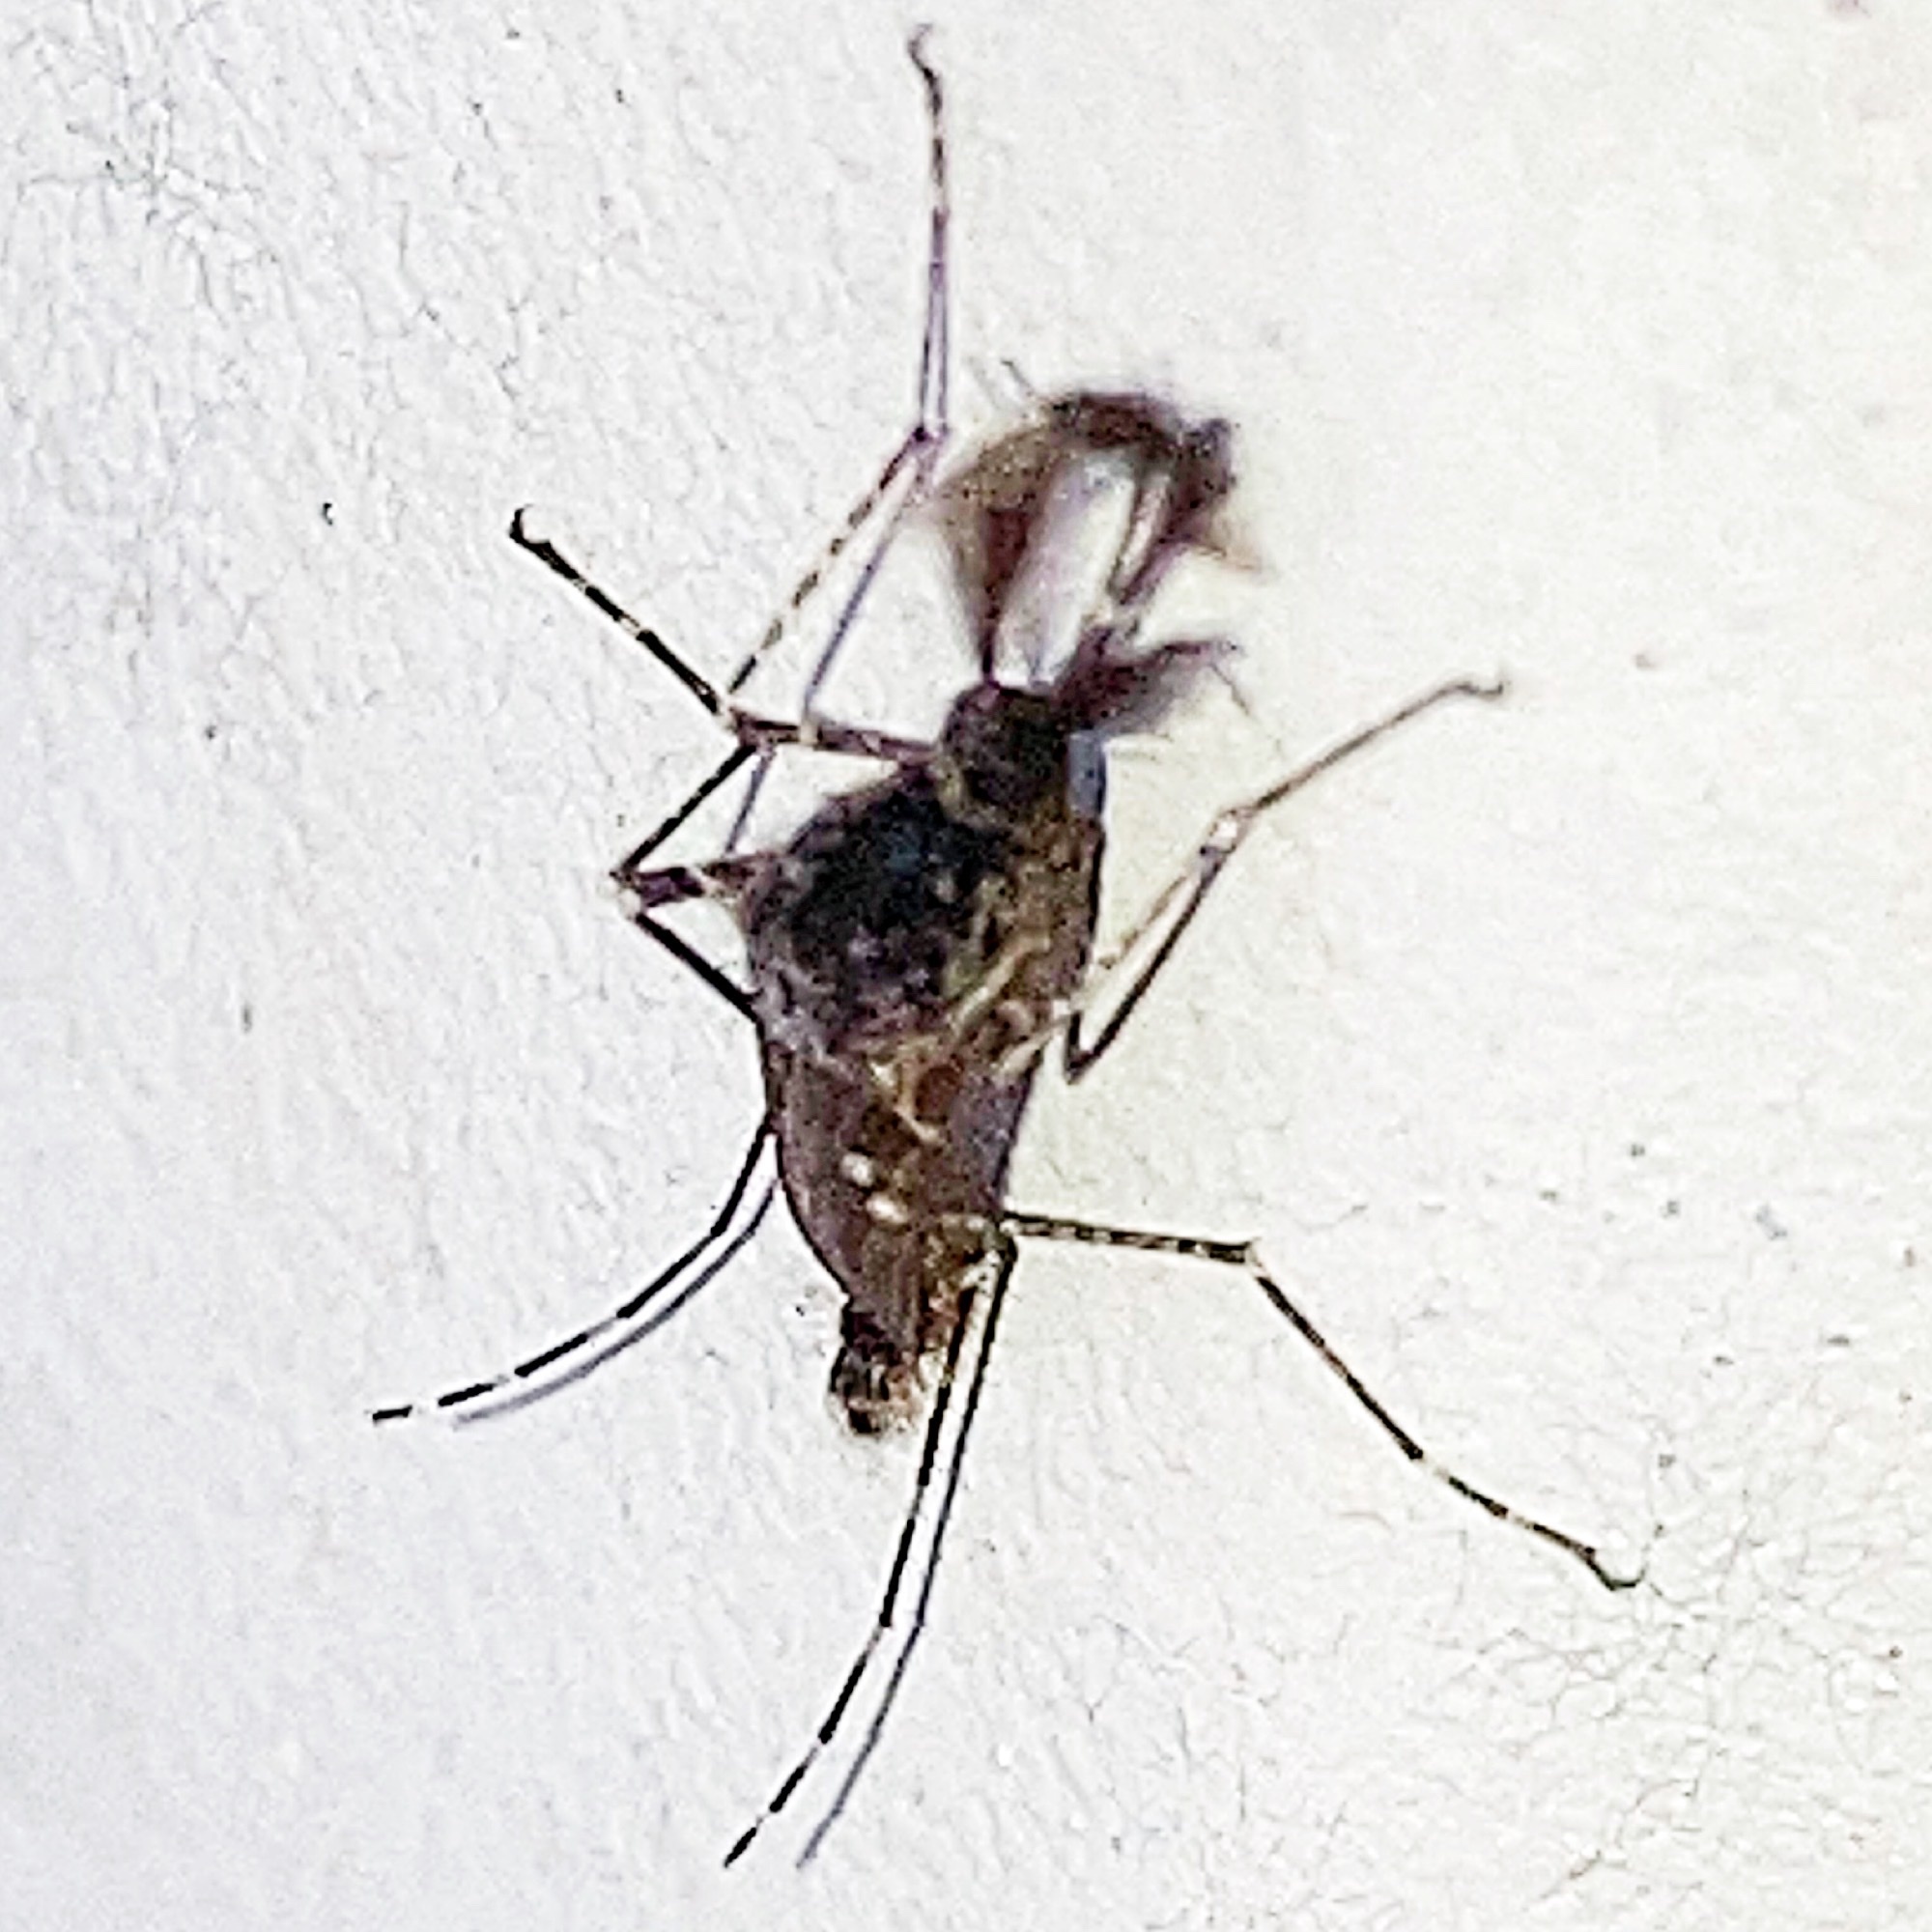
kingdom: Animalia
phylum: Arthropoda
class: Insecta
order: Diptera
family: Culicidae
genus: Psorophora
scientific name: Psorophora columbiae
